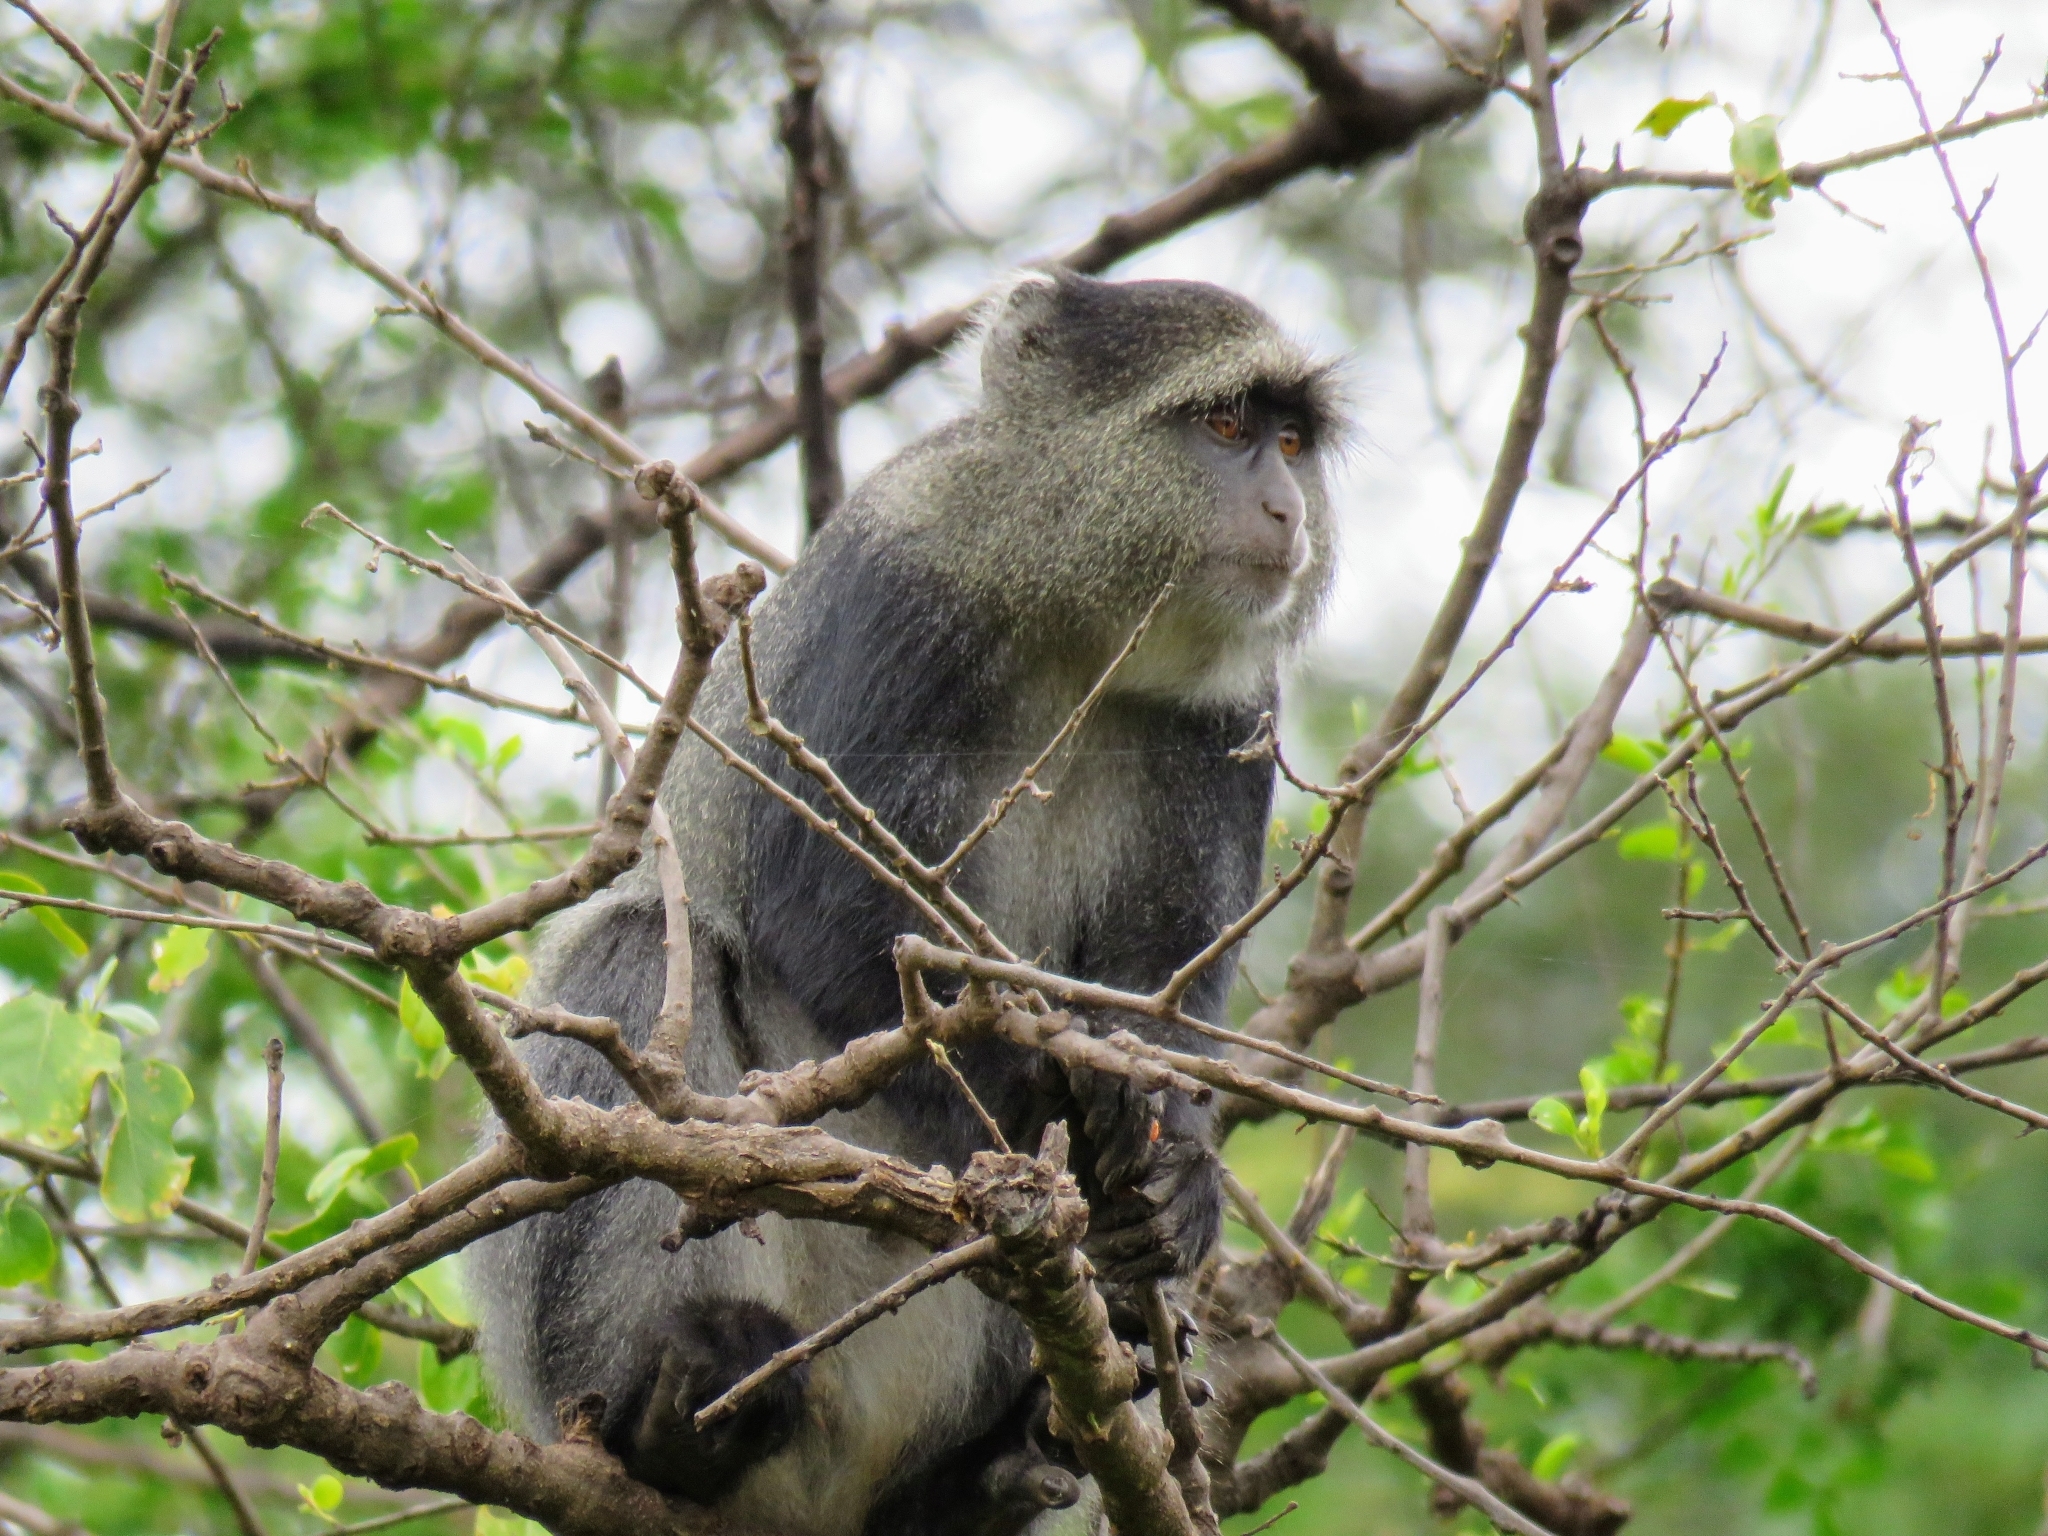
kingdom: Animalia
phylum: Chordata
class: Mammalia
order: Primates
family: Cercopithecidae
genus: Cercopithecus
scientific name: Cercopithecus mitis
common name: Blue monkey
